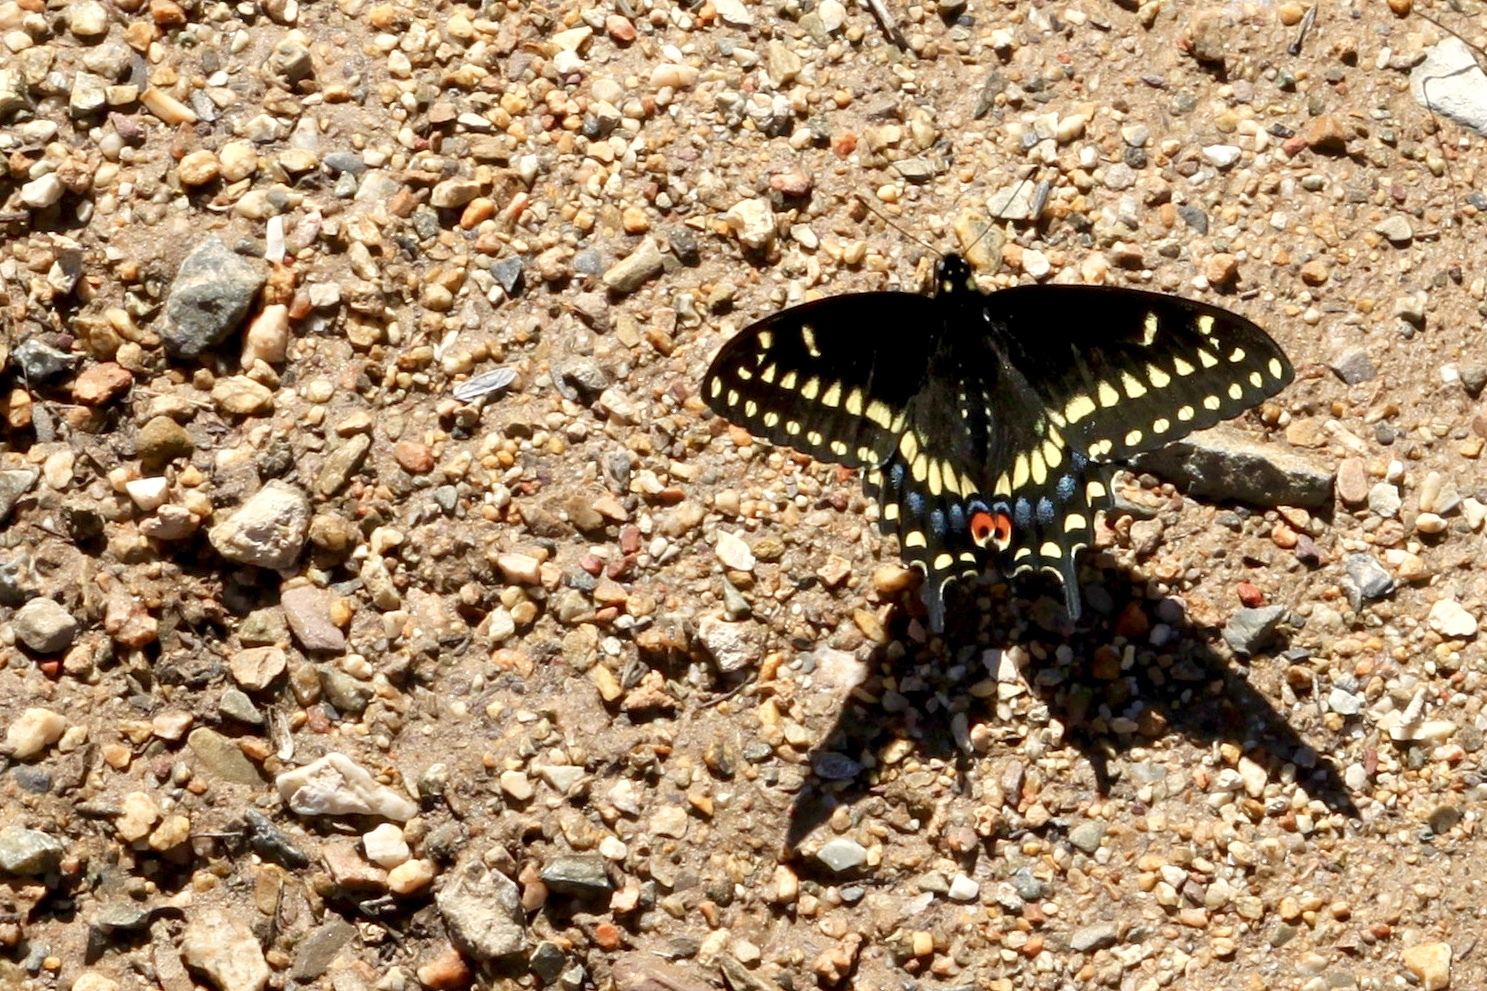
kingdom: Animalia
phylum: Arthropoda
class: Insecta
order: Lepidoptera
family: Papilionidae
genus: Papilio
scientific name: Papilio polyxenes
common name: Black swallowtail
